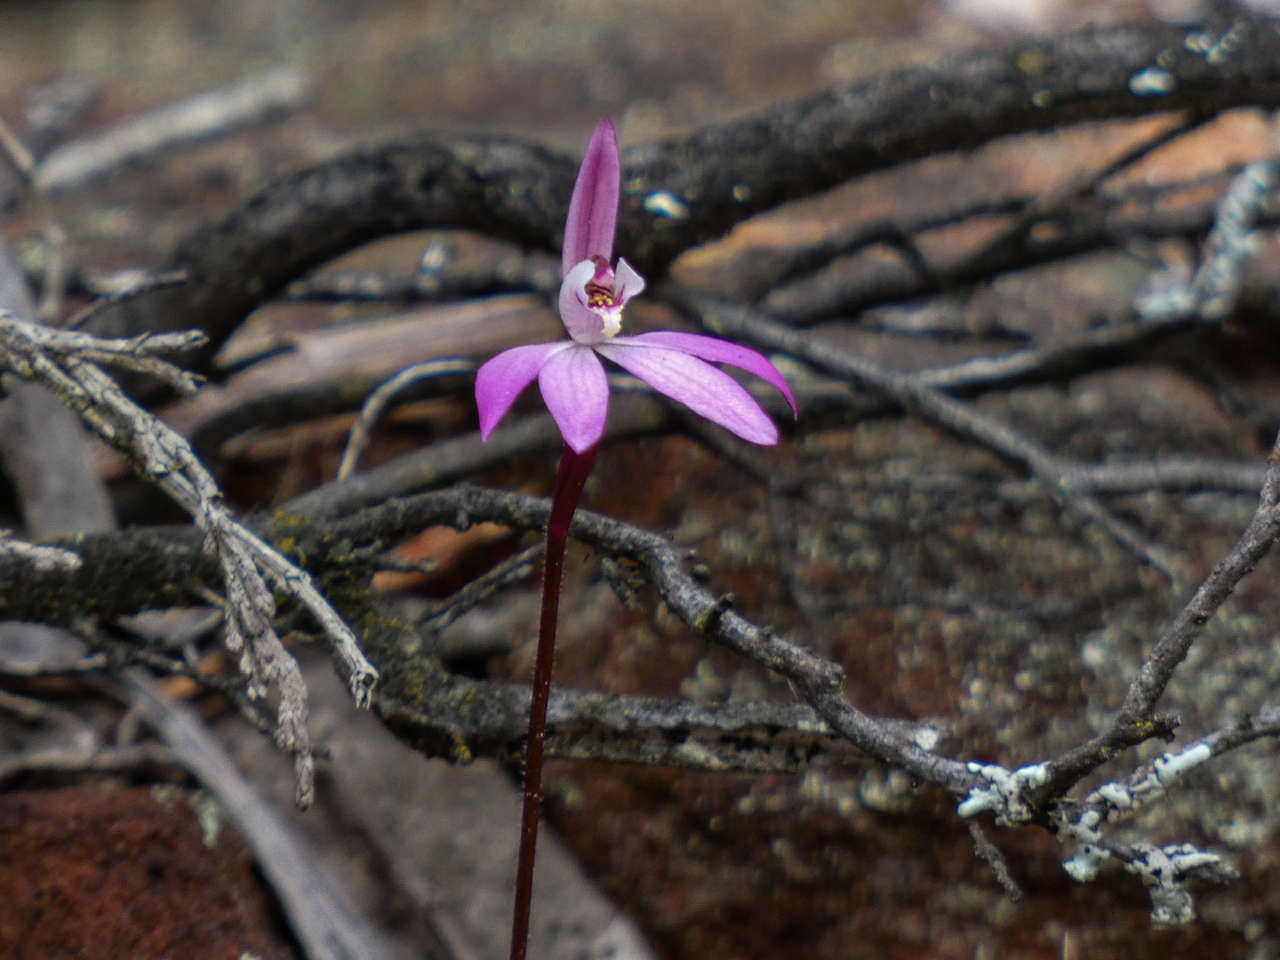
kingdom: Plantae
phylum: Tracheophyta
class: Liliopsida
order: Asparagales
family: Orchidaceae
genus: Caladenia
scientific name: Caladenia fuscata
